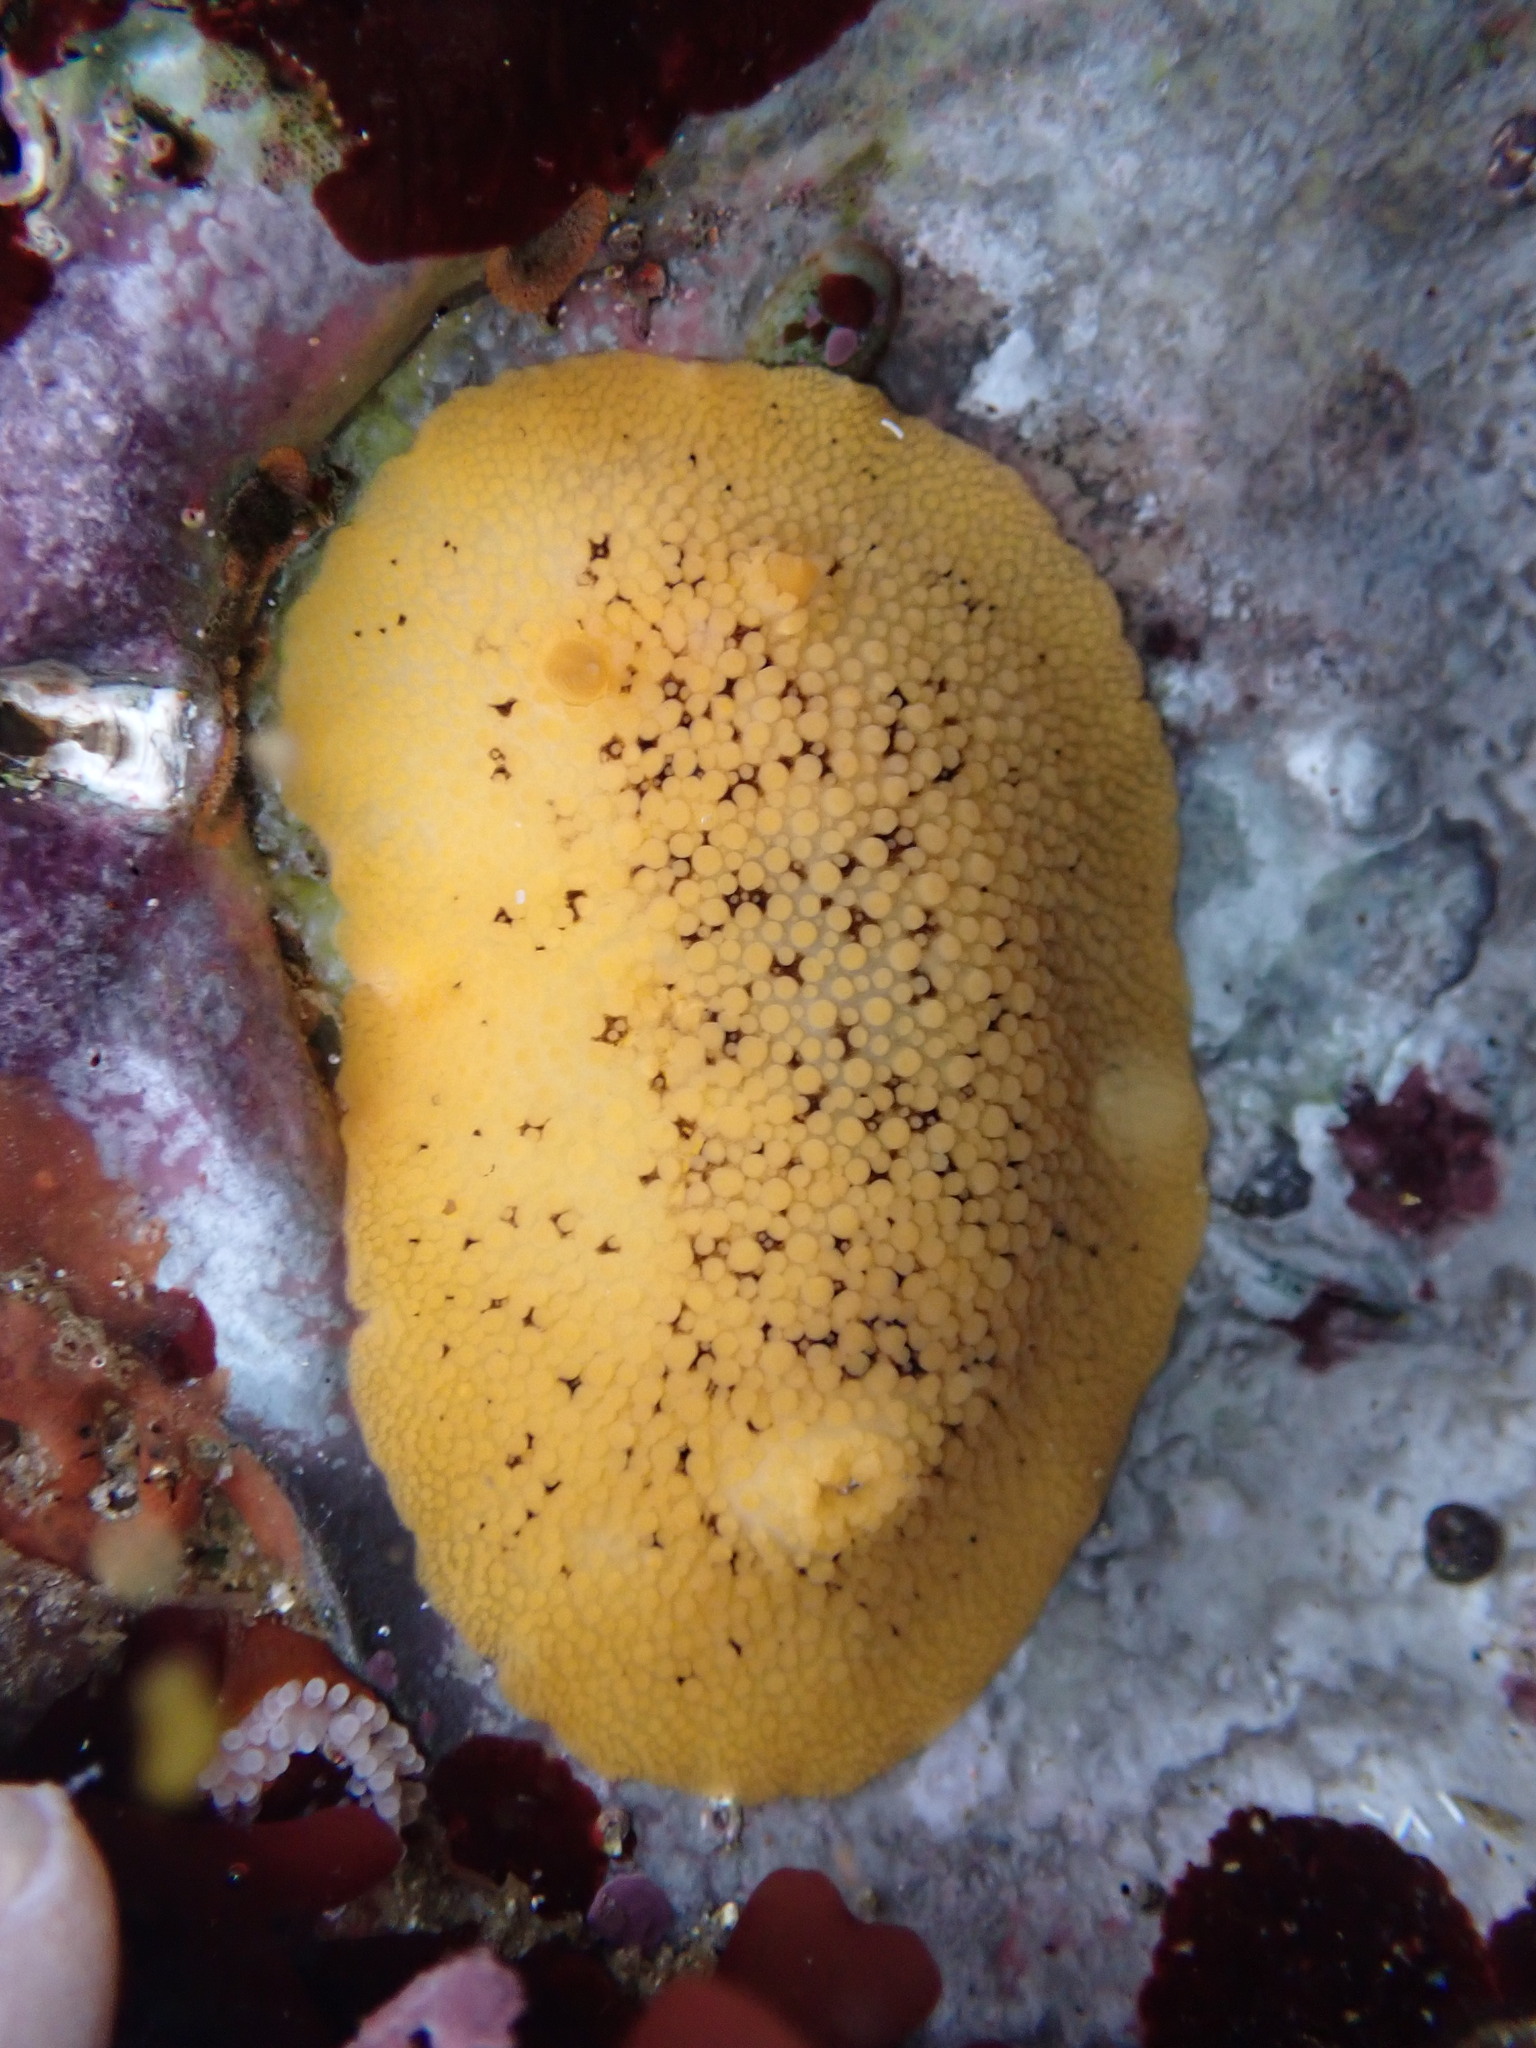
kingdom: Animalia
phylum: Mollusca
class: Gastropoda
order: Nudibranchia
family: Discodorididae
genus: Peltodoris
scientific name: Peltodoris nobilis
